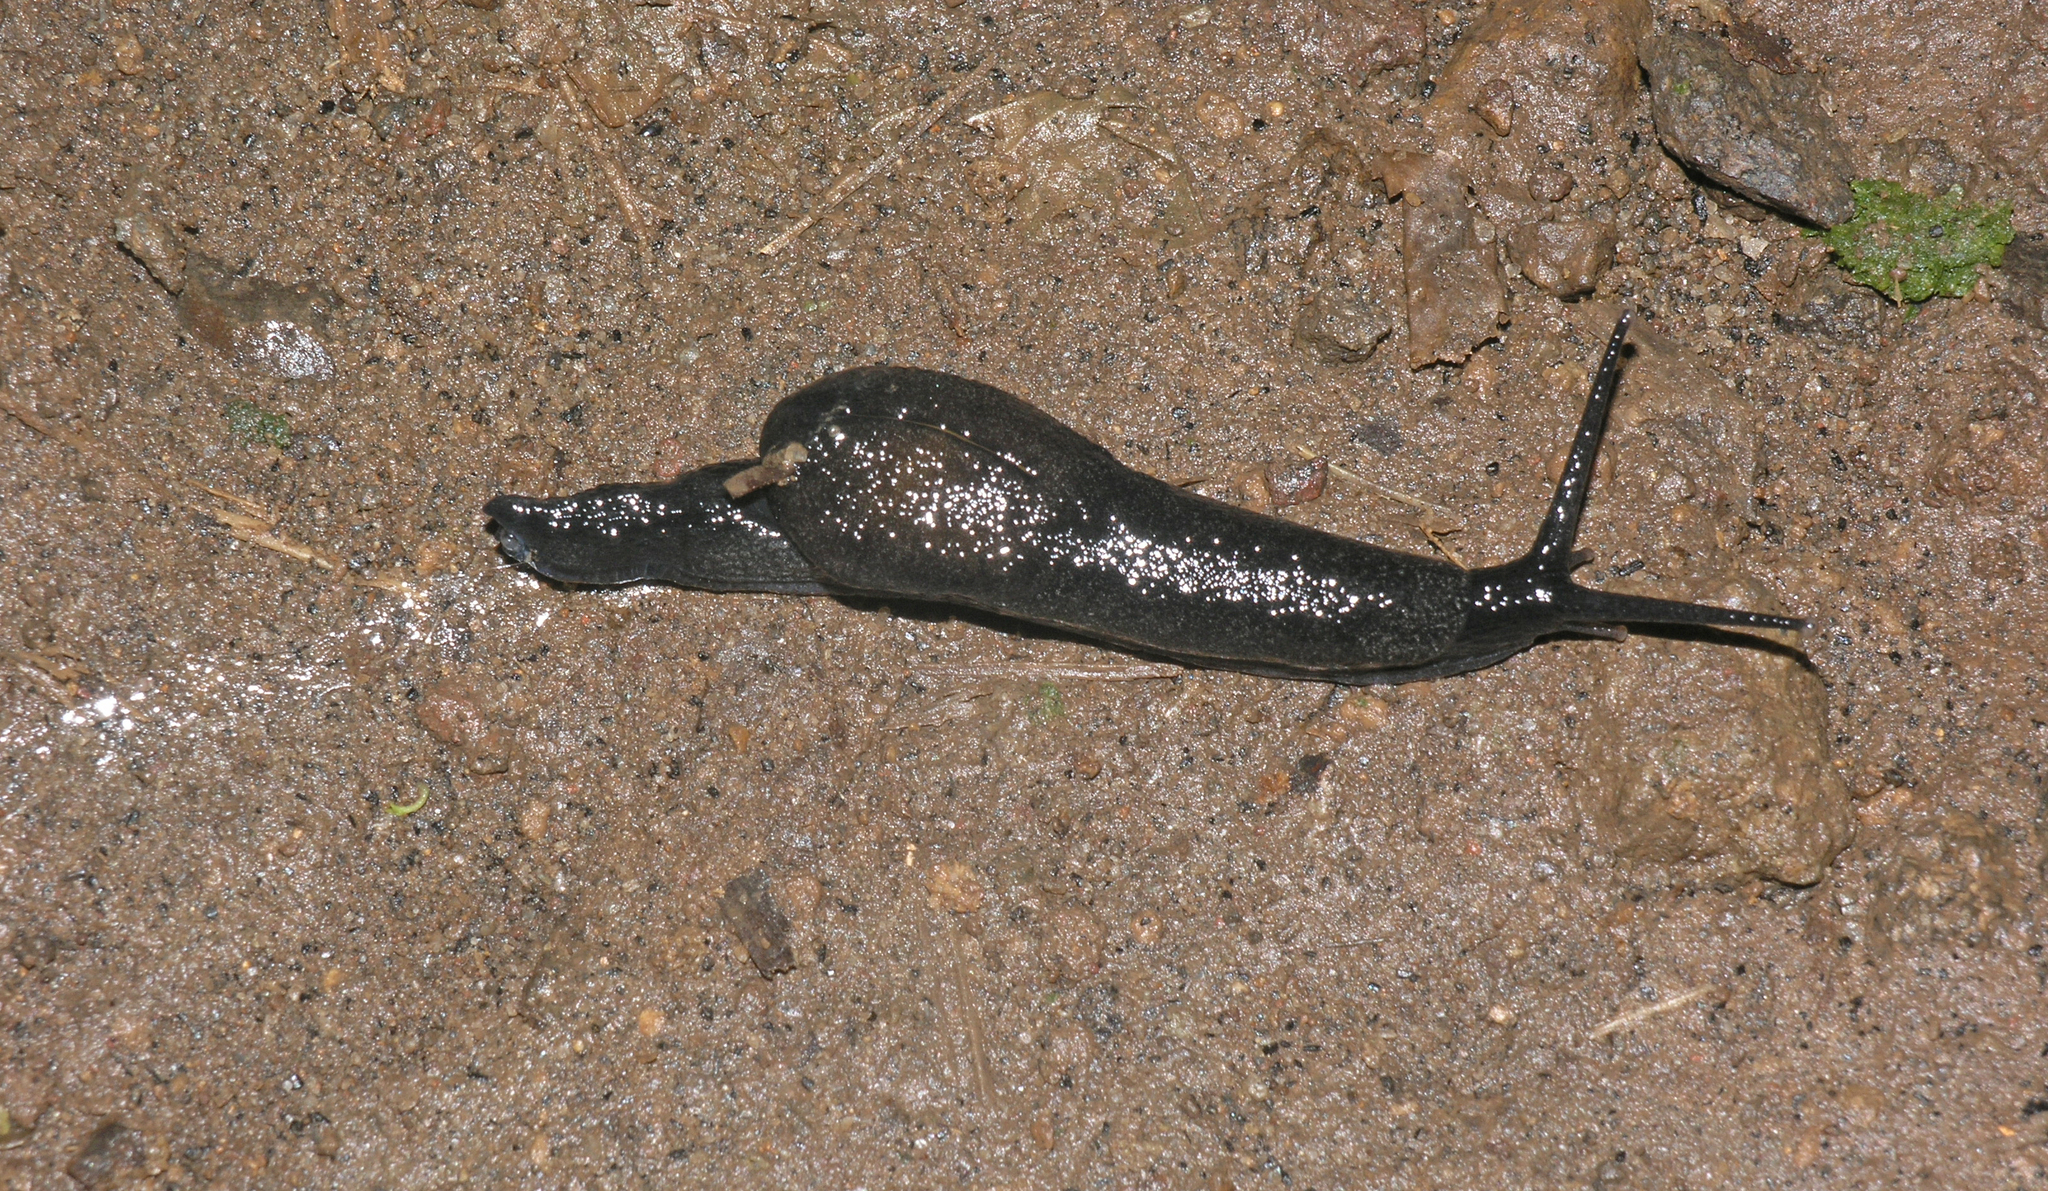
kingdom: Animalia
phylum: Mollusca
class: Gastropoda
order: Stylommatophora
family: Ariophantidae
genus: Parmarion
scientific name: Parmarion martensi
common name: Semi-slug
